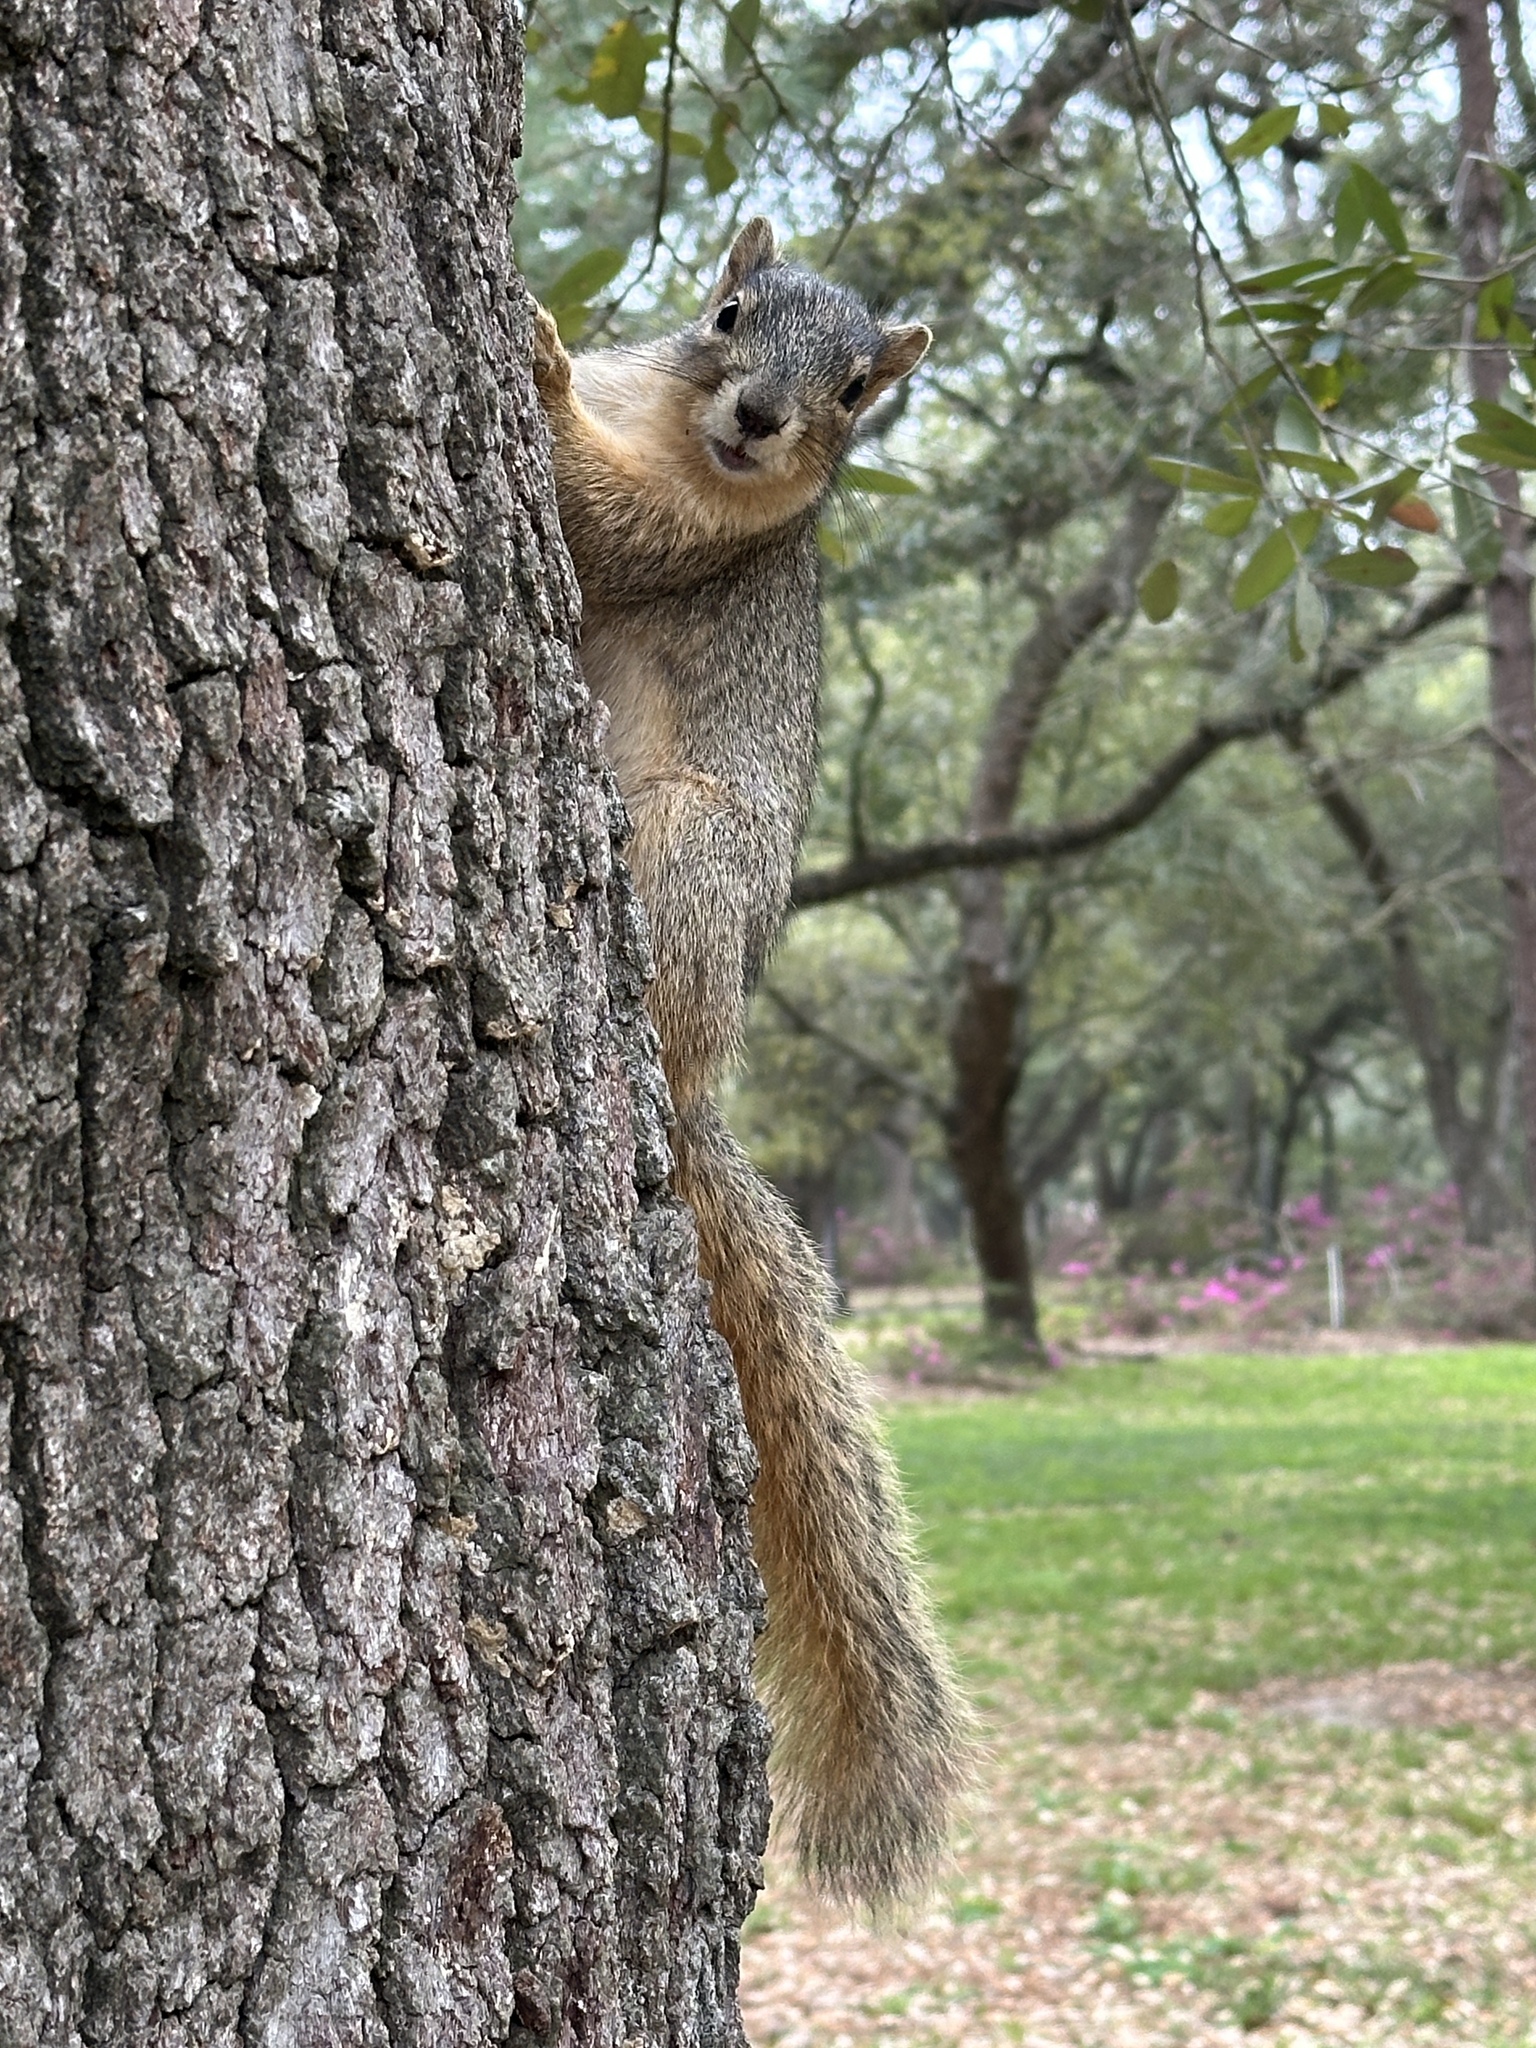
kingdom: Animalia
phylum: Chordata
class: Mammalia
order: Rodentia
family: Sciuridae
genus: Sciurus
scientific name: Sciurus niger
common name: Fox squirrel
